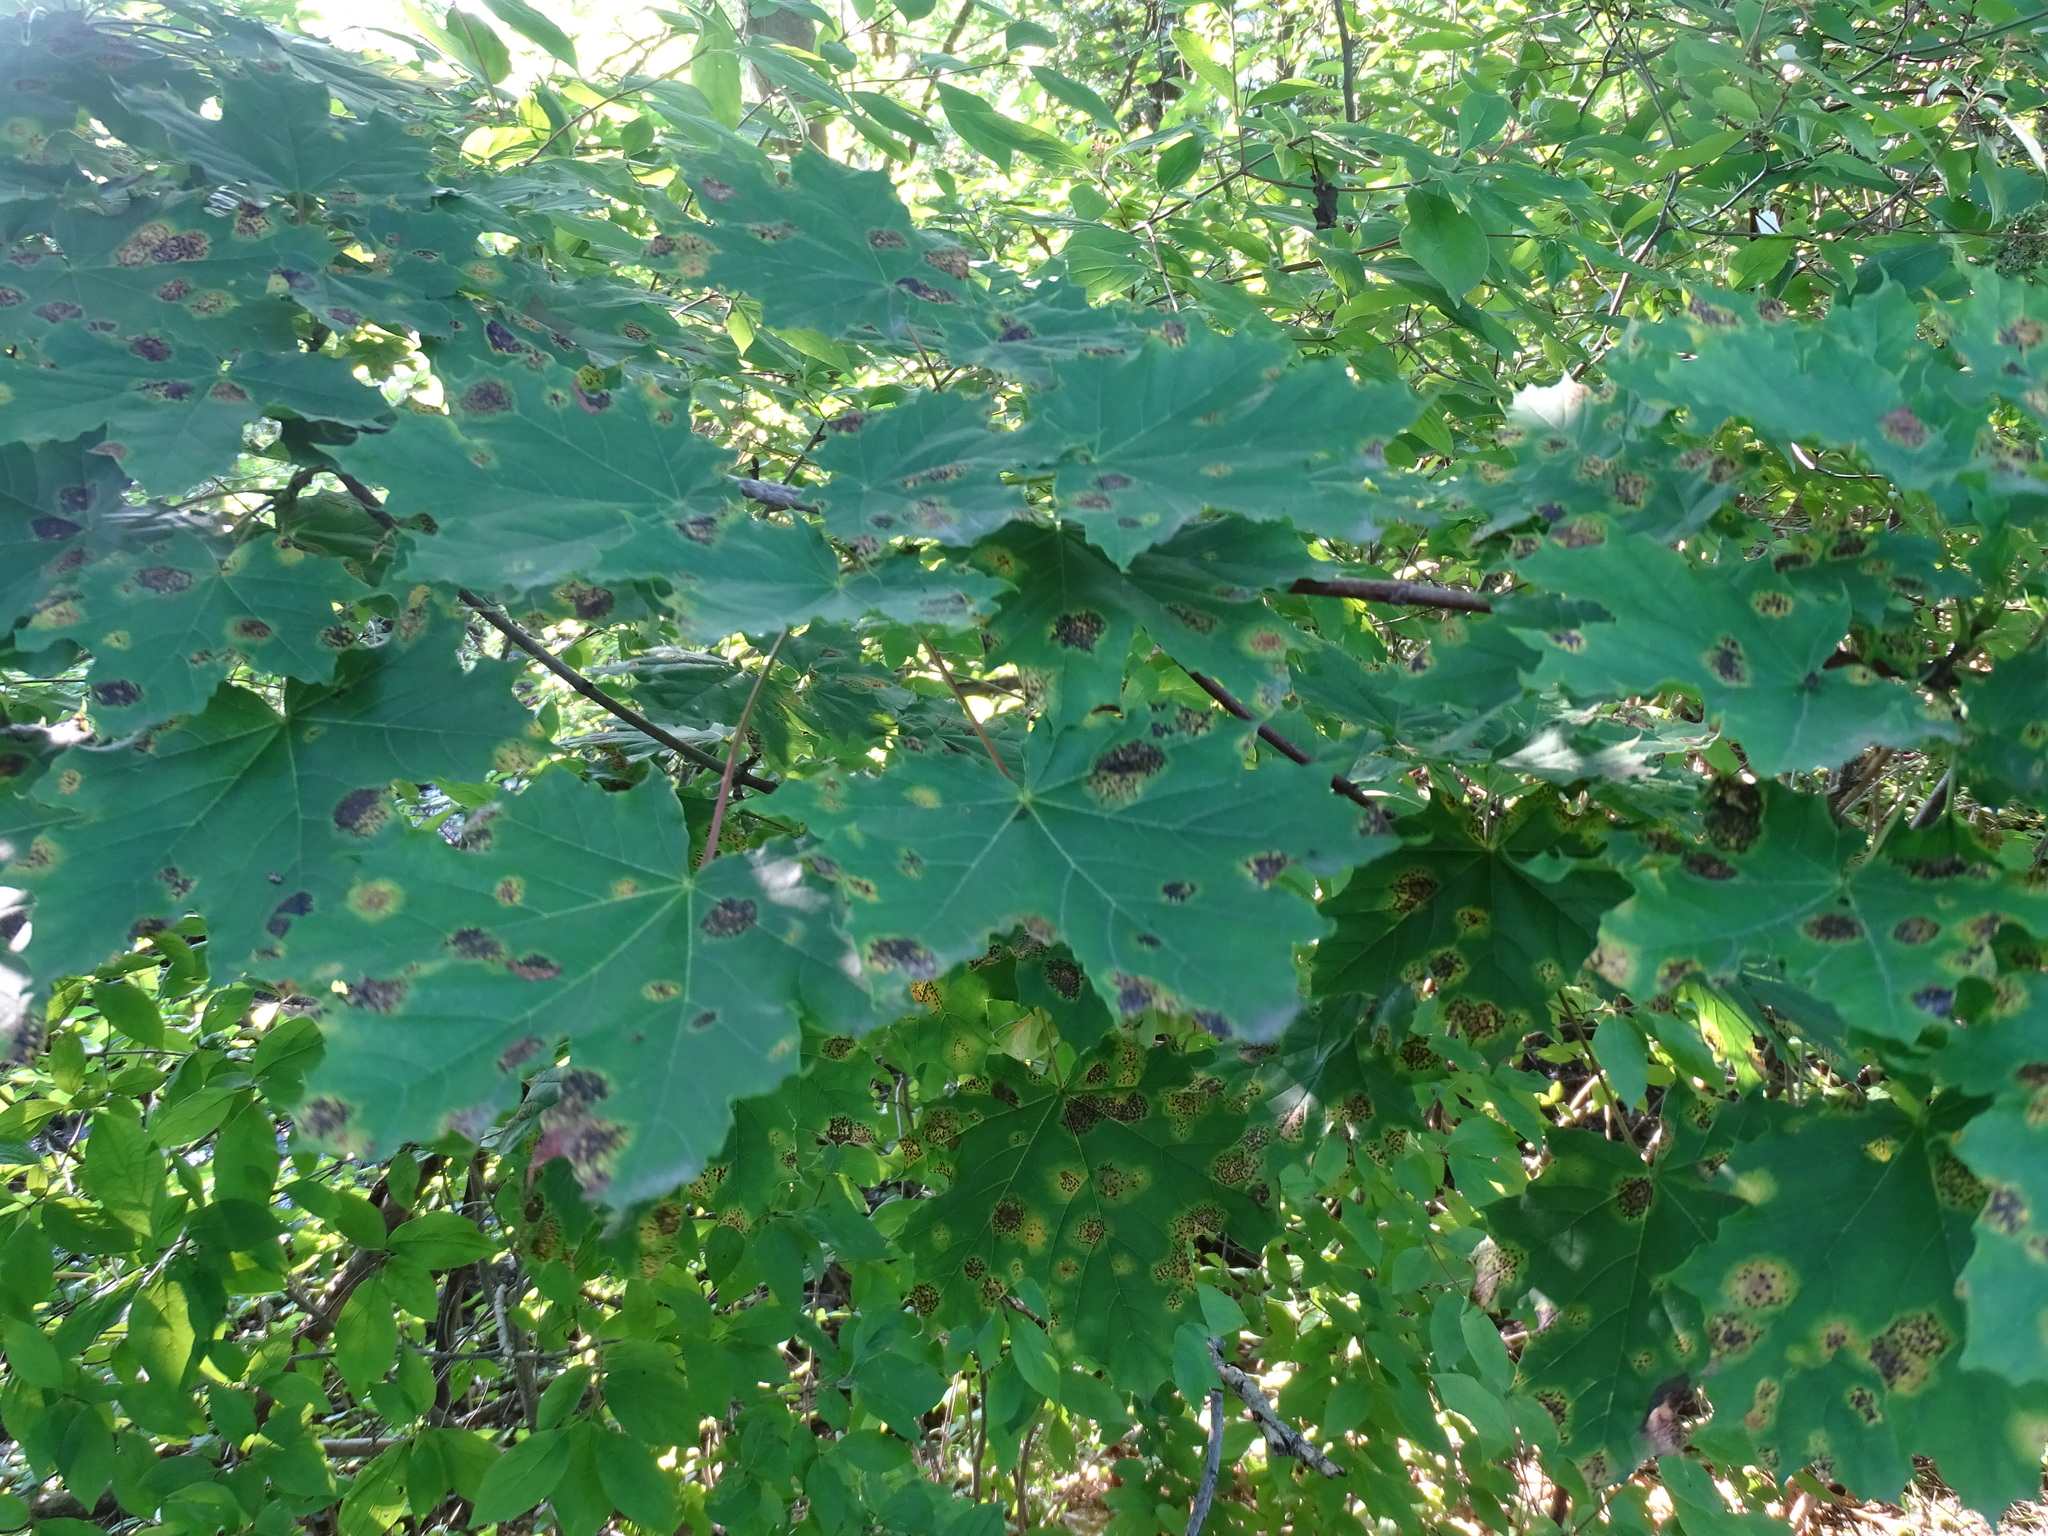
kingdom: Plantae
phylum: Tracheophyta
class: Magnoliopsida
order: Sapindales
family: Sapindaceae
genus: Acer
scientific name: Acer platanoides
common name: Norway maple
